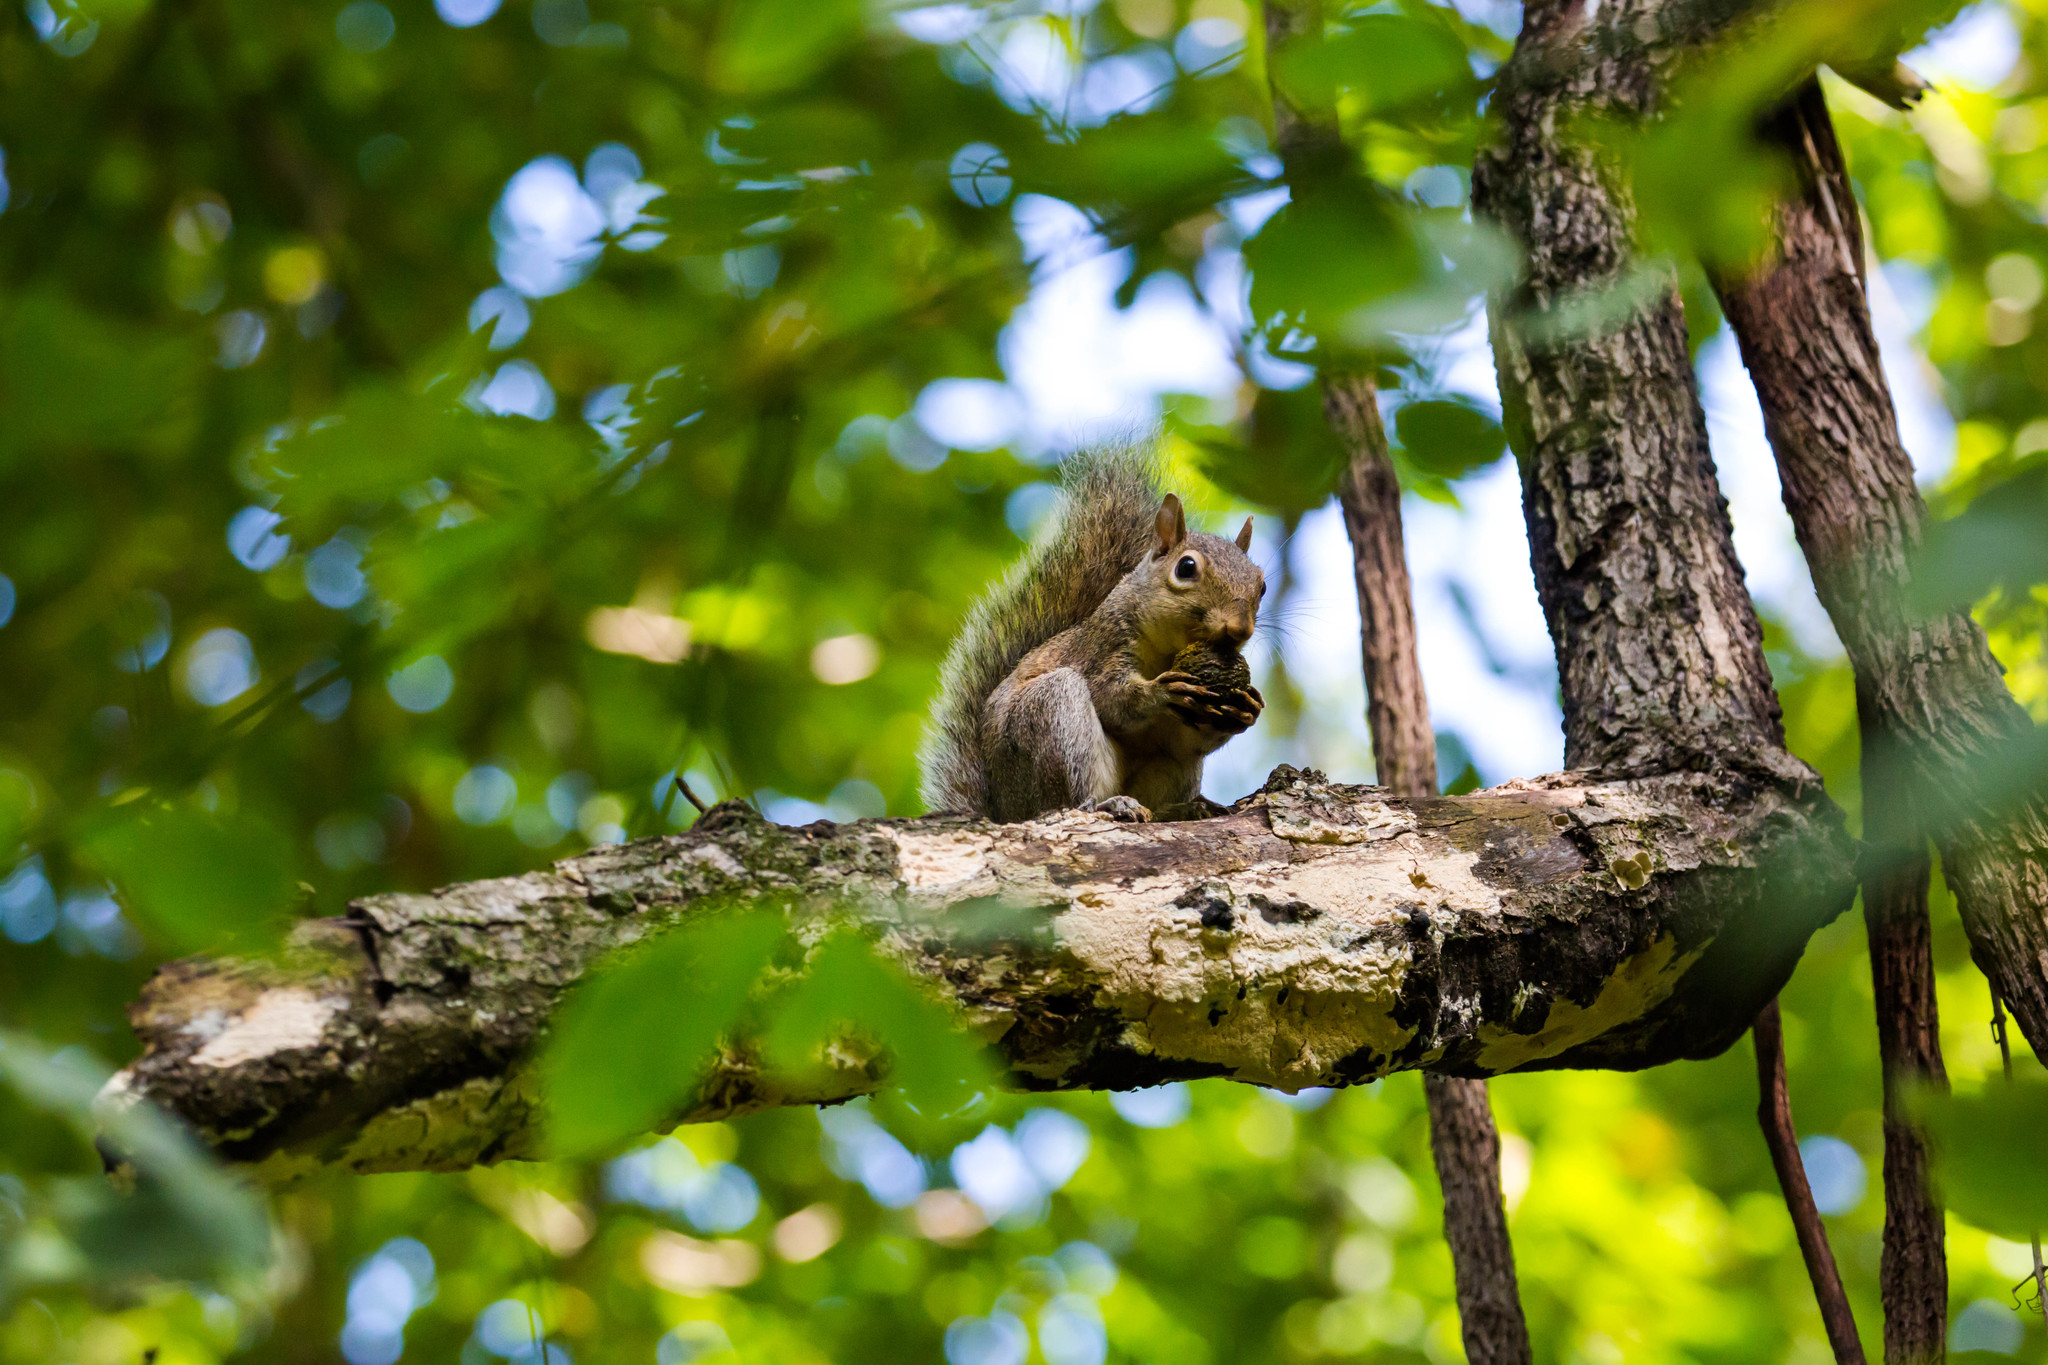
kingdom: Animalia
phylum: Chordata
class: Mammalia
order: Rodentia
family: Sciuridae
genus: Sciurus
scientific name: Sciurus carolinensis
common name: Eastern gray squirrel
